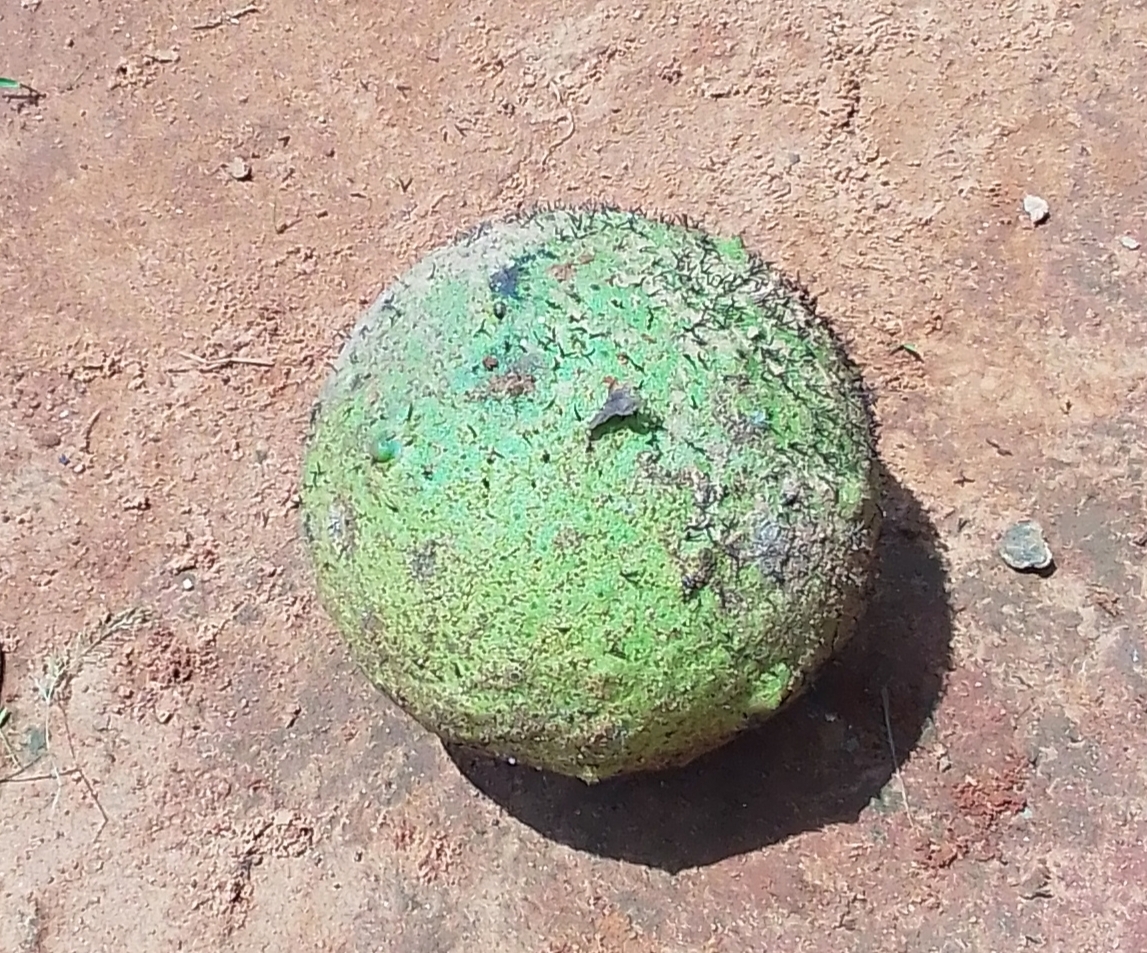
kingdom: Plantae
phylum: Tracheophyta
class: Magnoliopsida
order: Rosales
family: Moraceae
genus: Treculia
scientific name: Treculia africana
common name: African breadfruit
